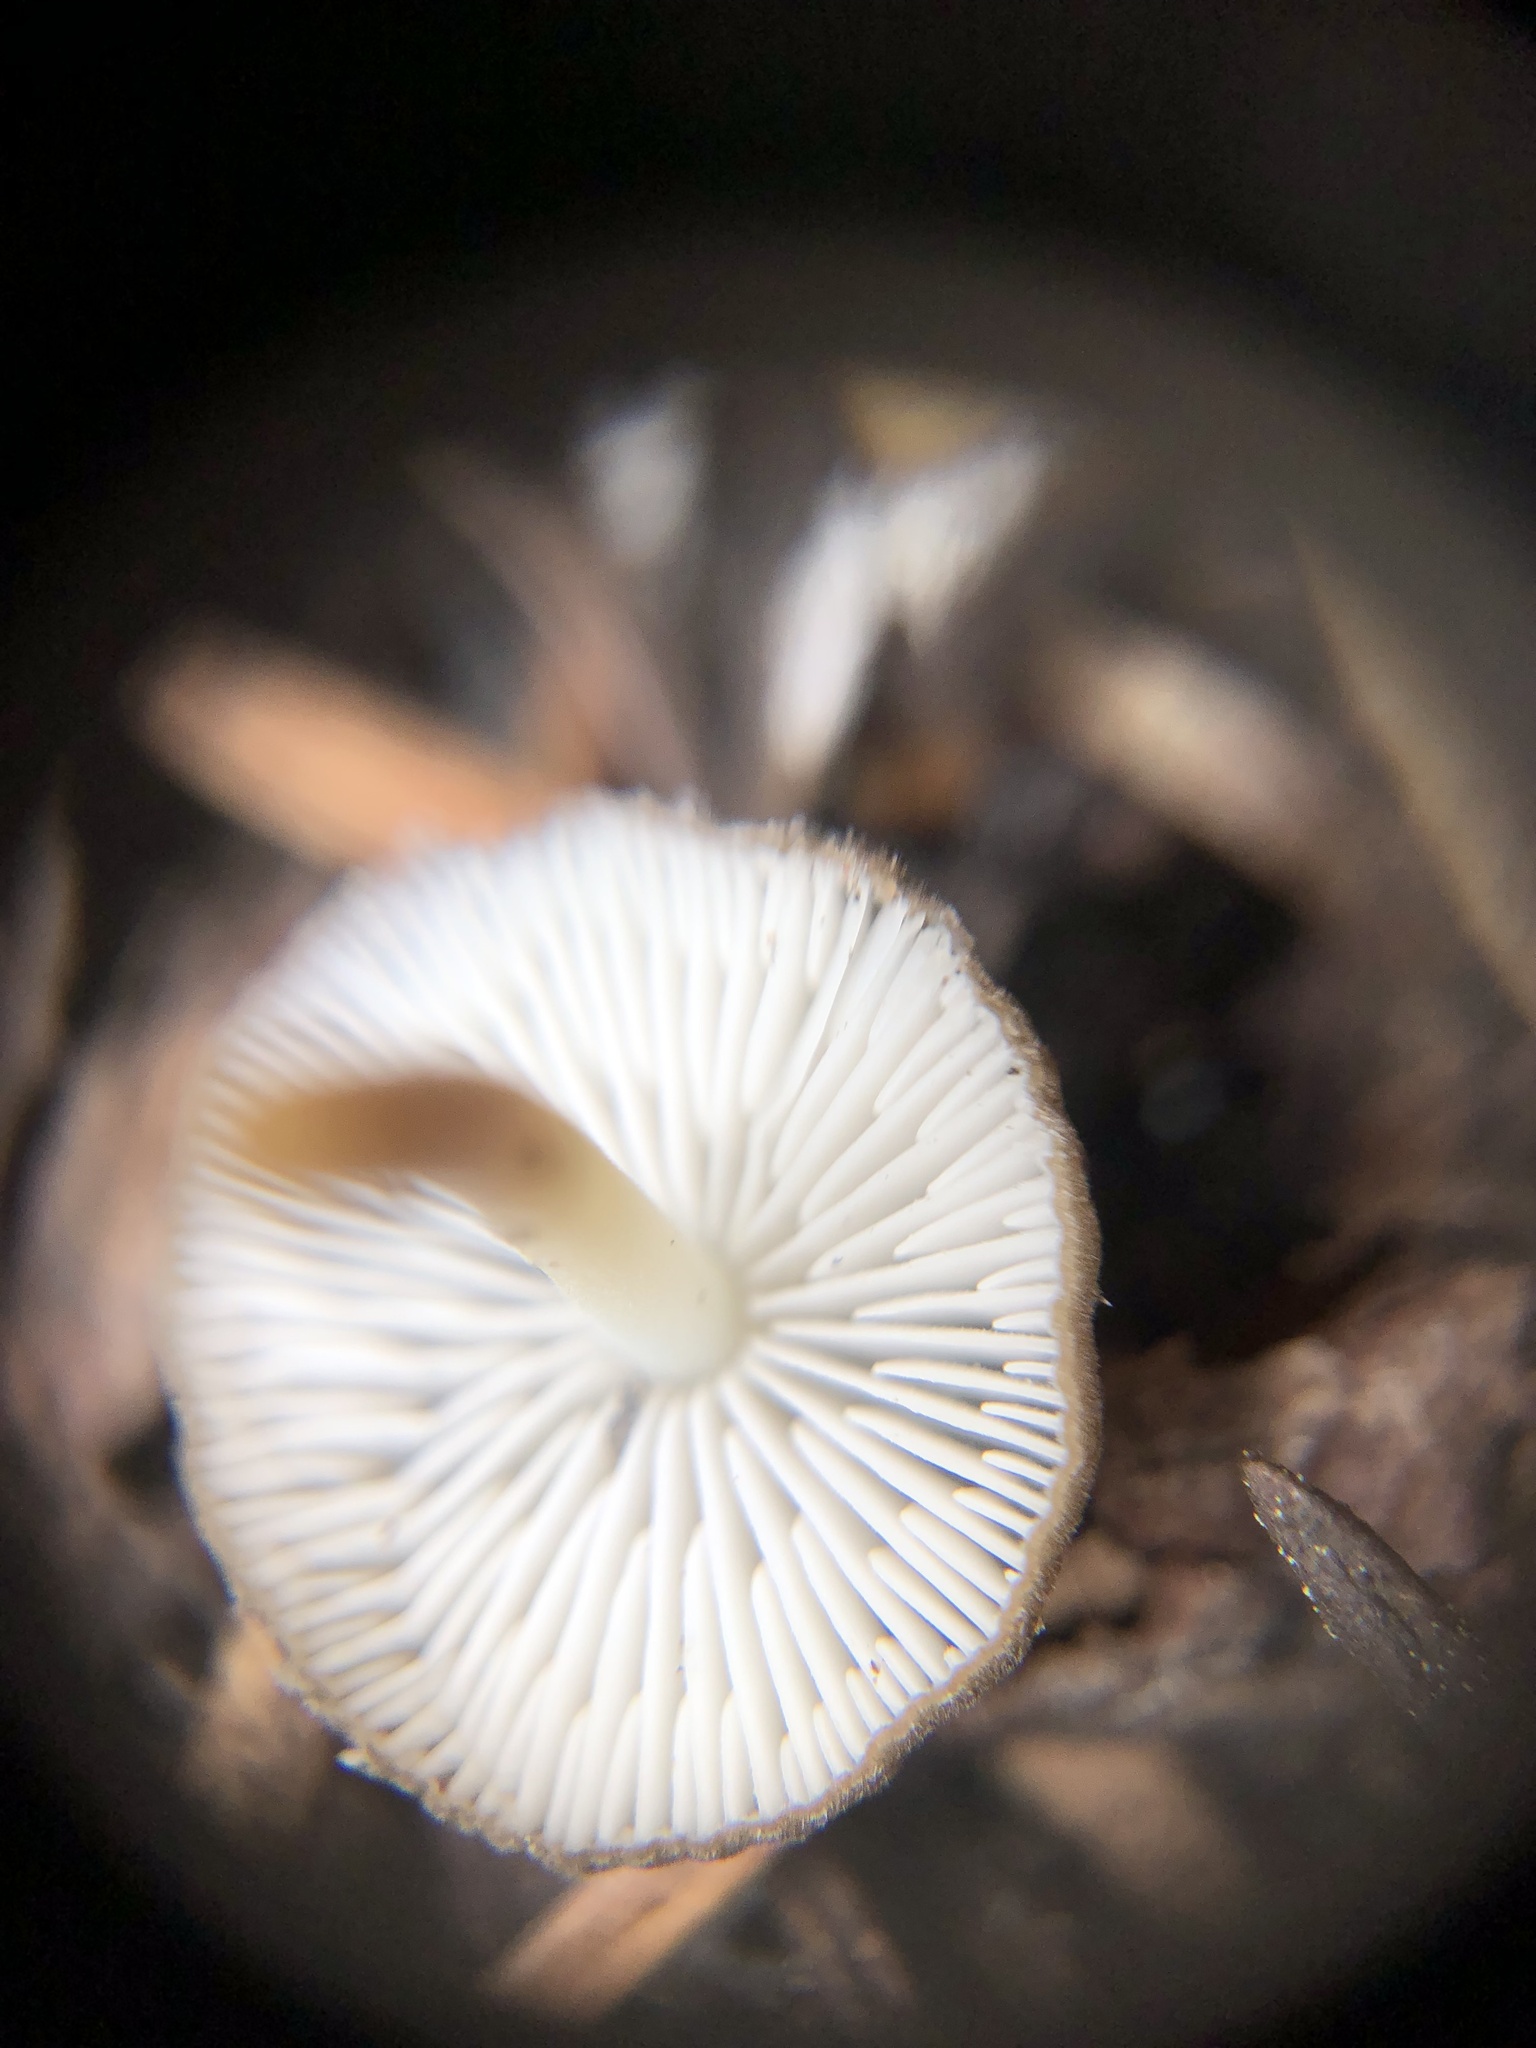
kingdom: Fungi
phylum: Basidiomycota
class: Agaricomycetes
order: Agaricales
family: Marasmiaceae
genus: Baeospora
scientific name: Baeospora occidentalis
